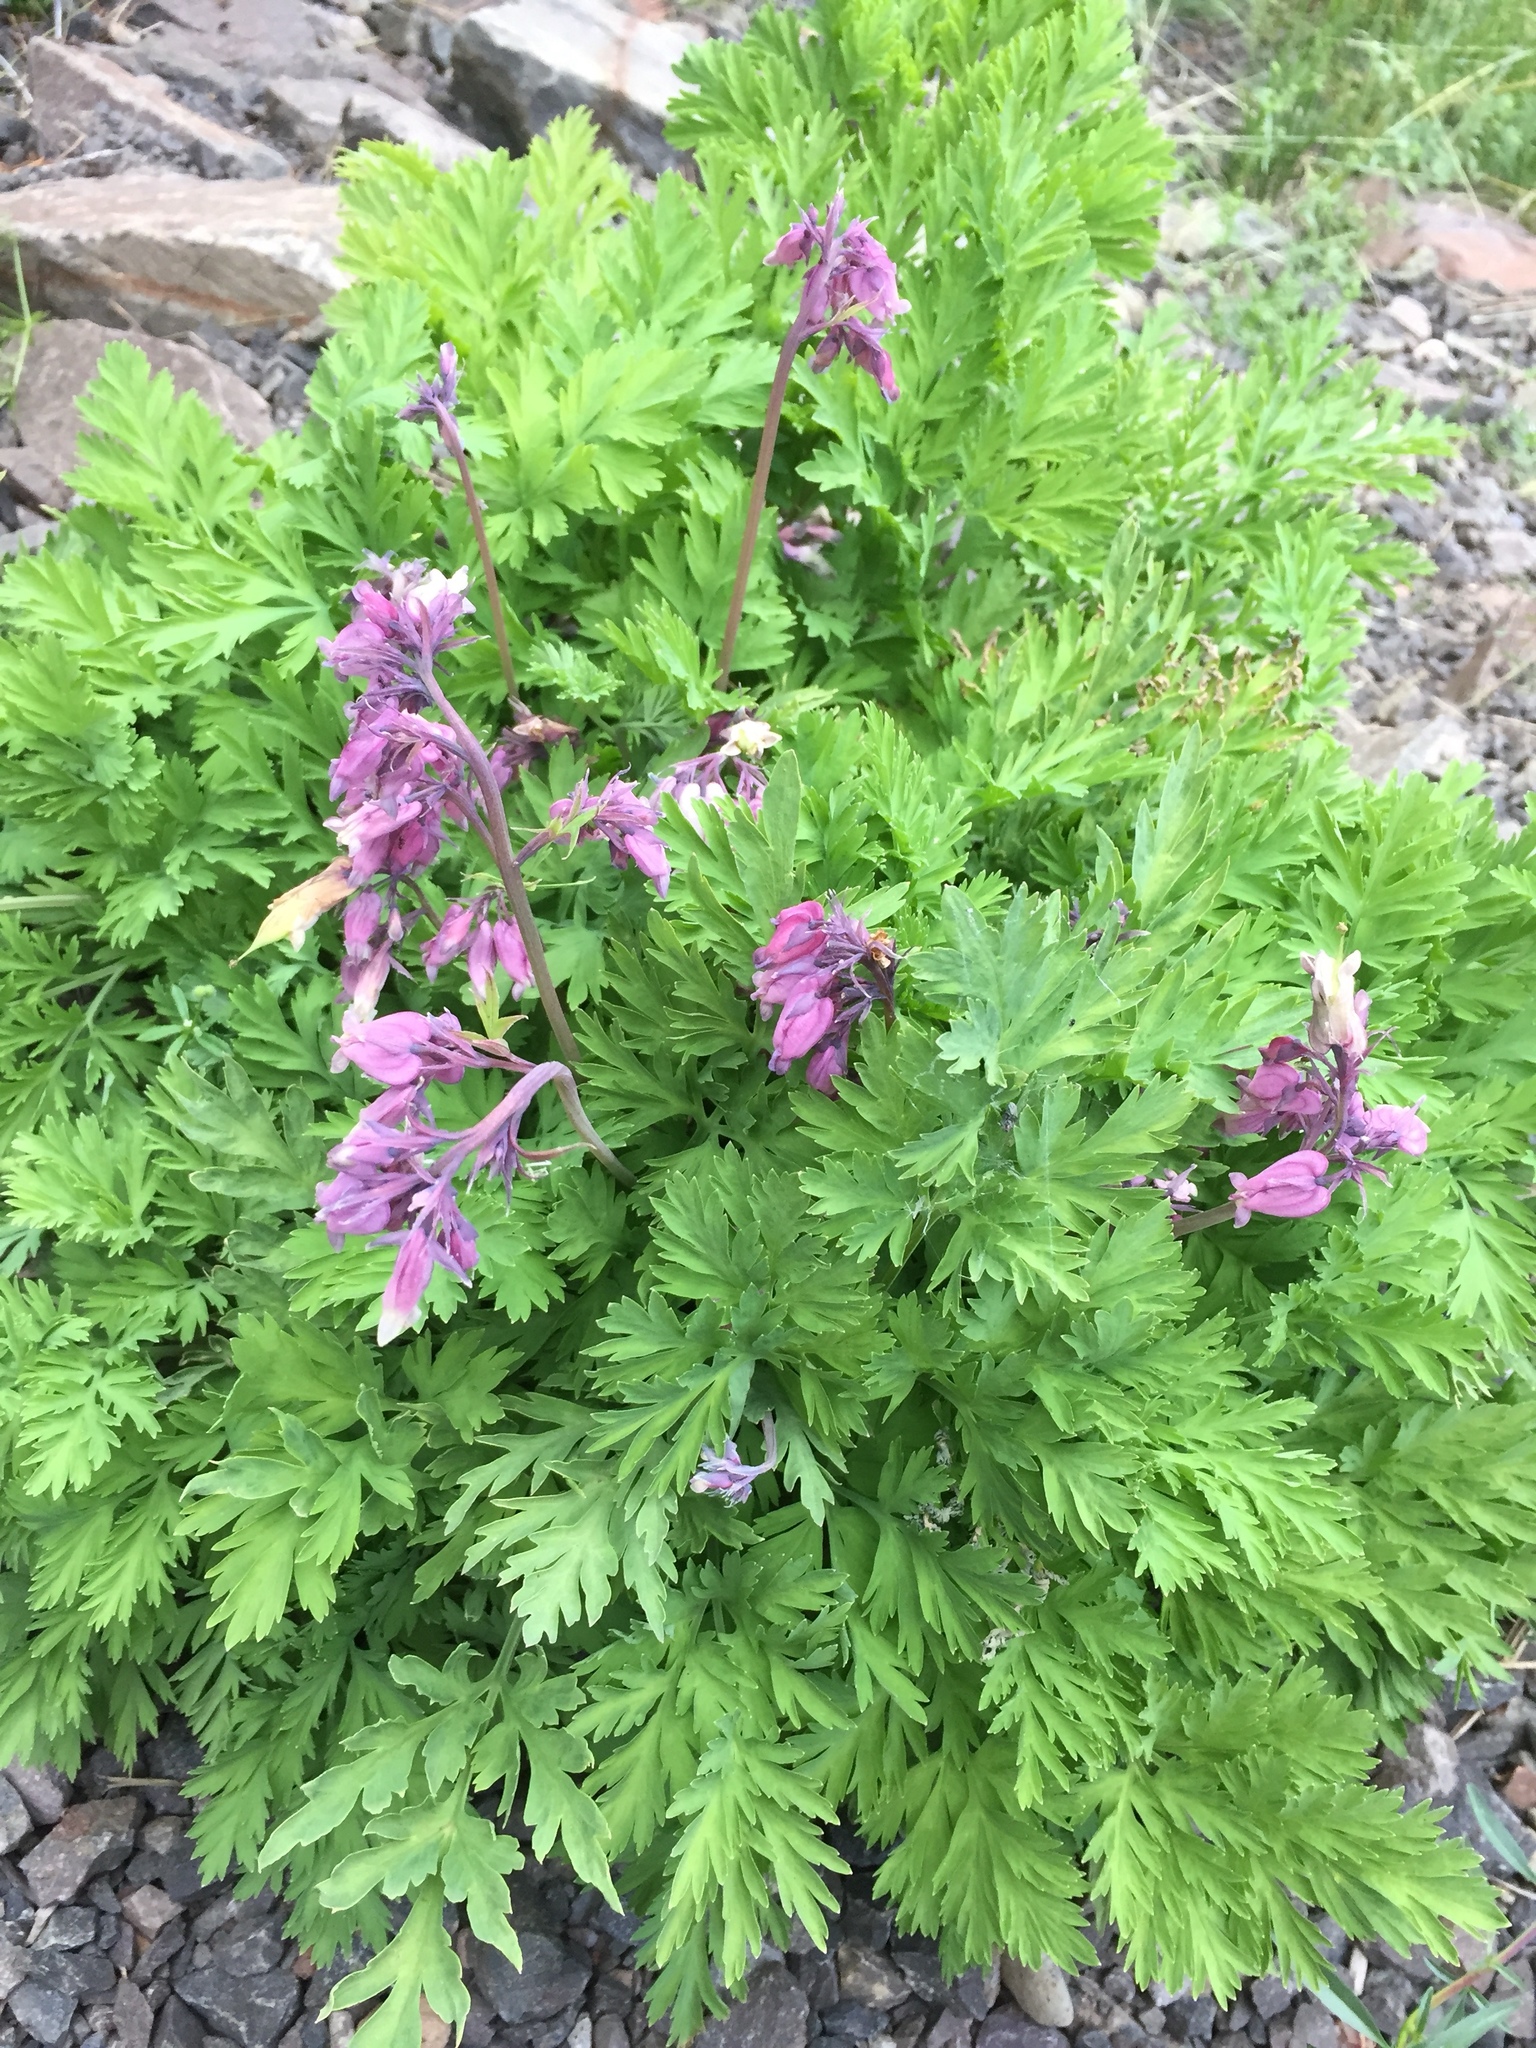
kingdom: Plantae
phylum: Tracheophyta
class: Magnoliopsida
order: Ranunculales
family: Papaveraceae
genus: Dicentra
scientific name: Dicentra formosa
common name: Bleeding-heart
